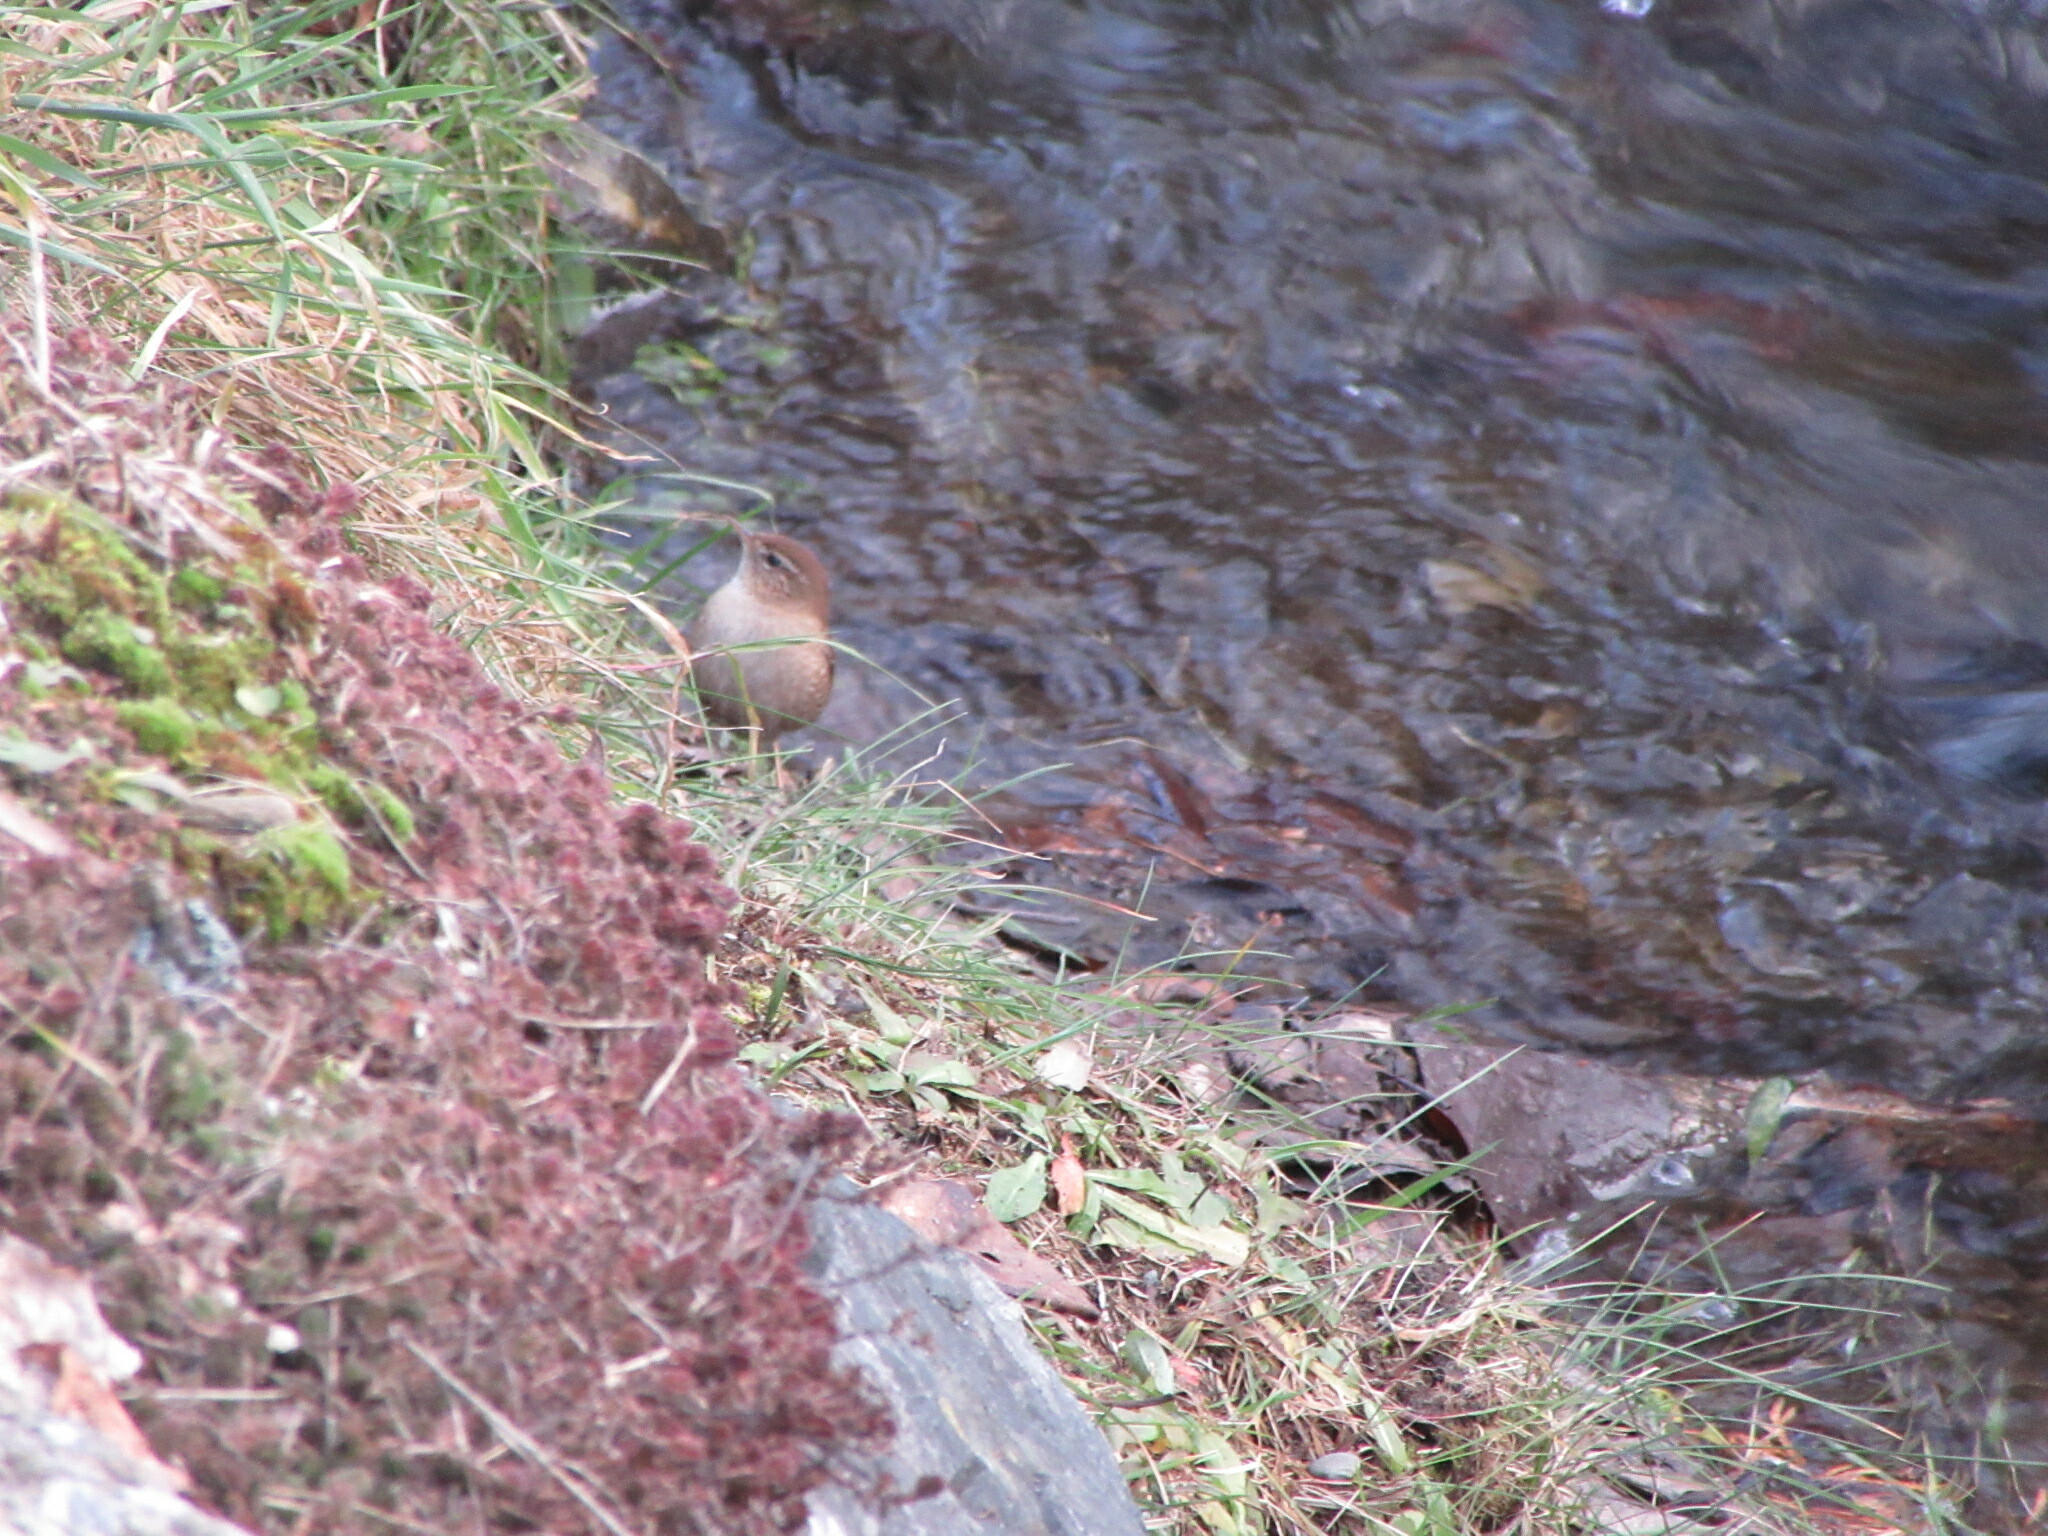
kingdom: Animalia
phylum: Chordata
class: Aves
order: Passeriformes
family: Troglodytidae
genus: Troglodytes
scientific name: Troglodytes troglodytes
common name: Eurasian wren
